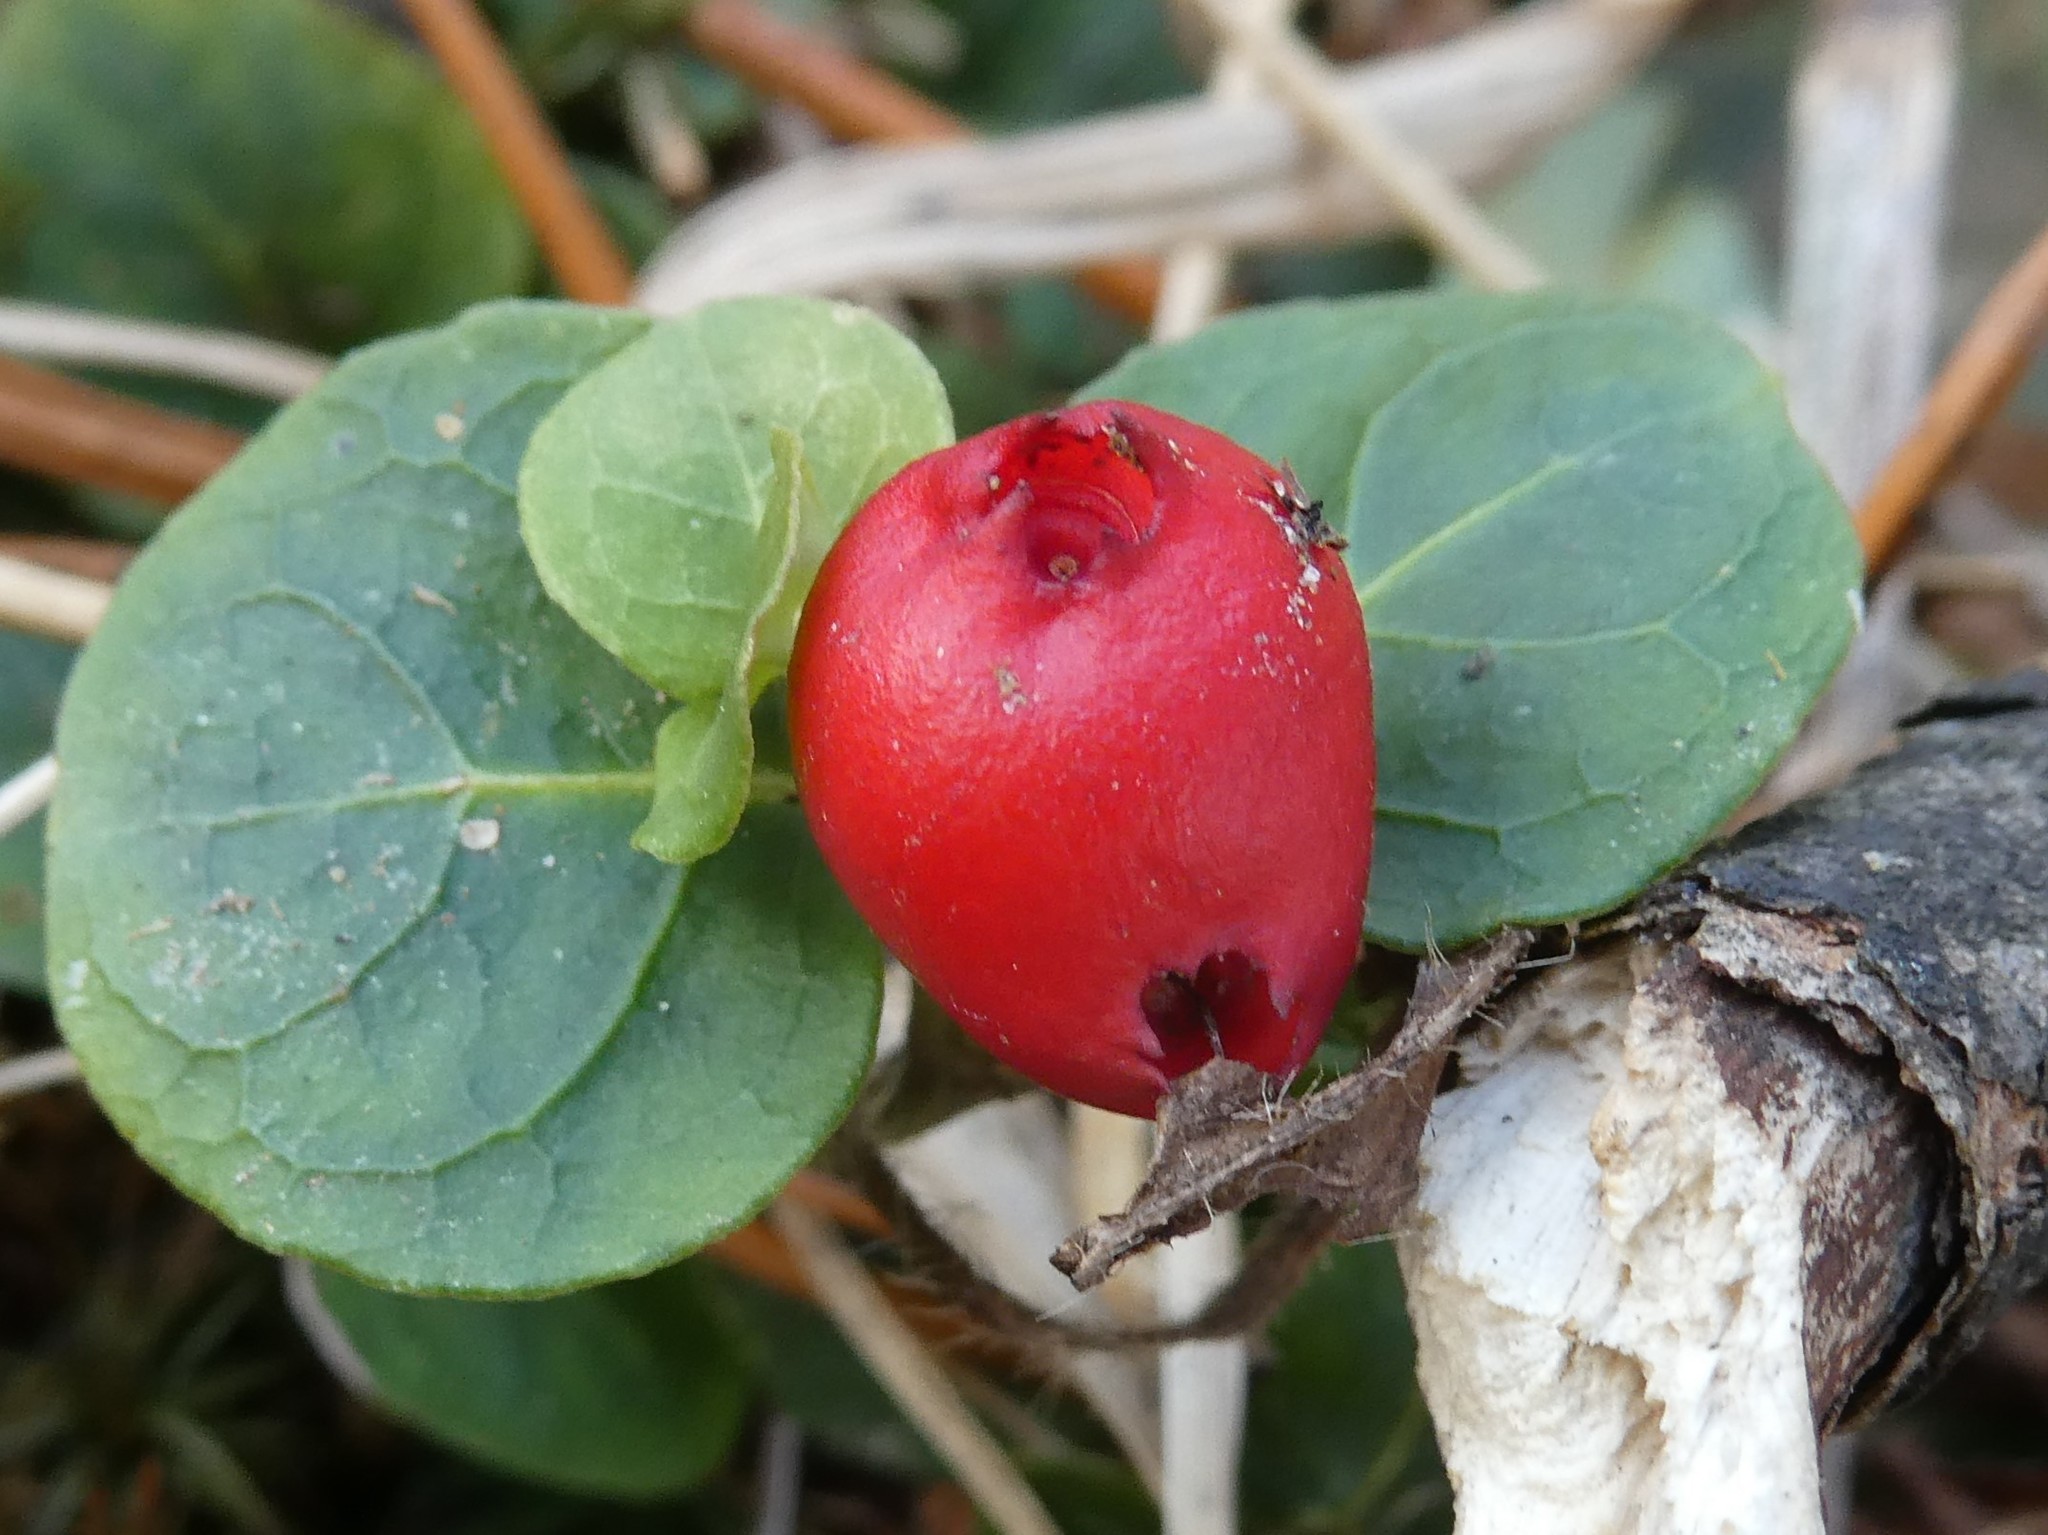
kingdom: Plantae
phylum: Tracheophyta
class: Magnoliopsida
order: Gentianales
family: Rubiaceae
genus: Mitchella
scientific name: Mitchella repens
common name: Partridge-berry
